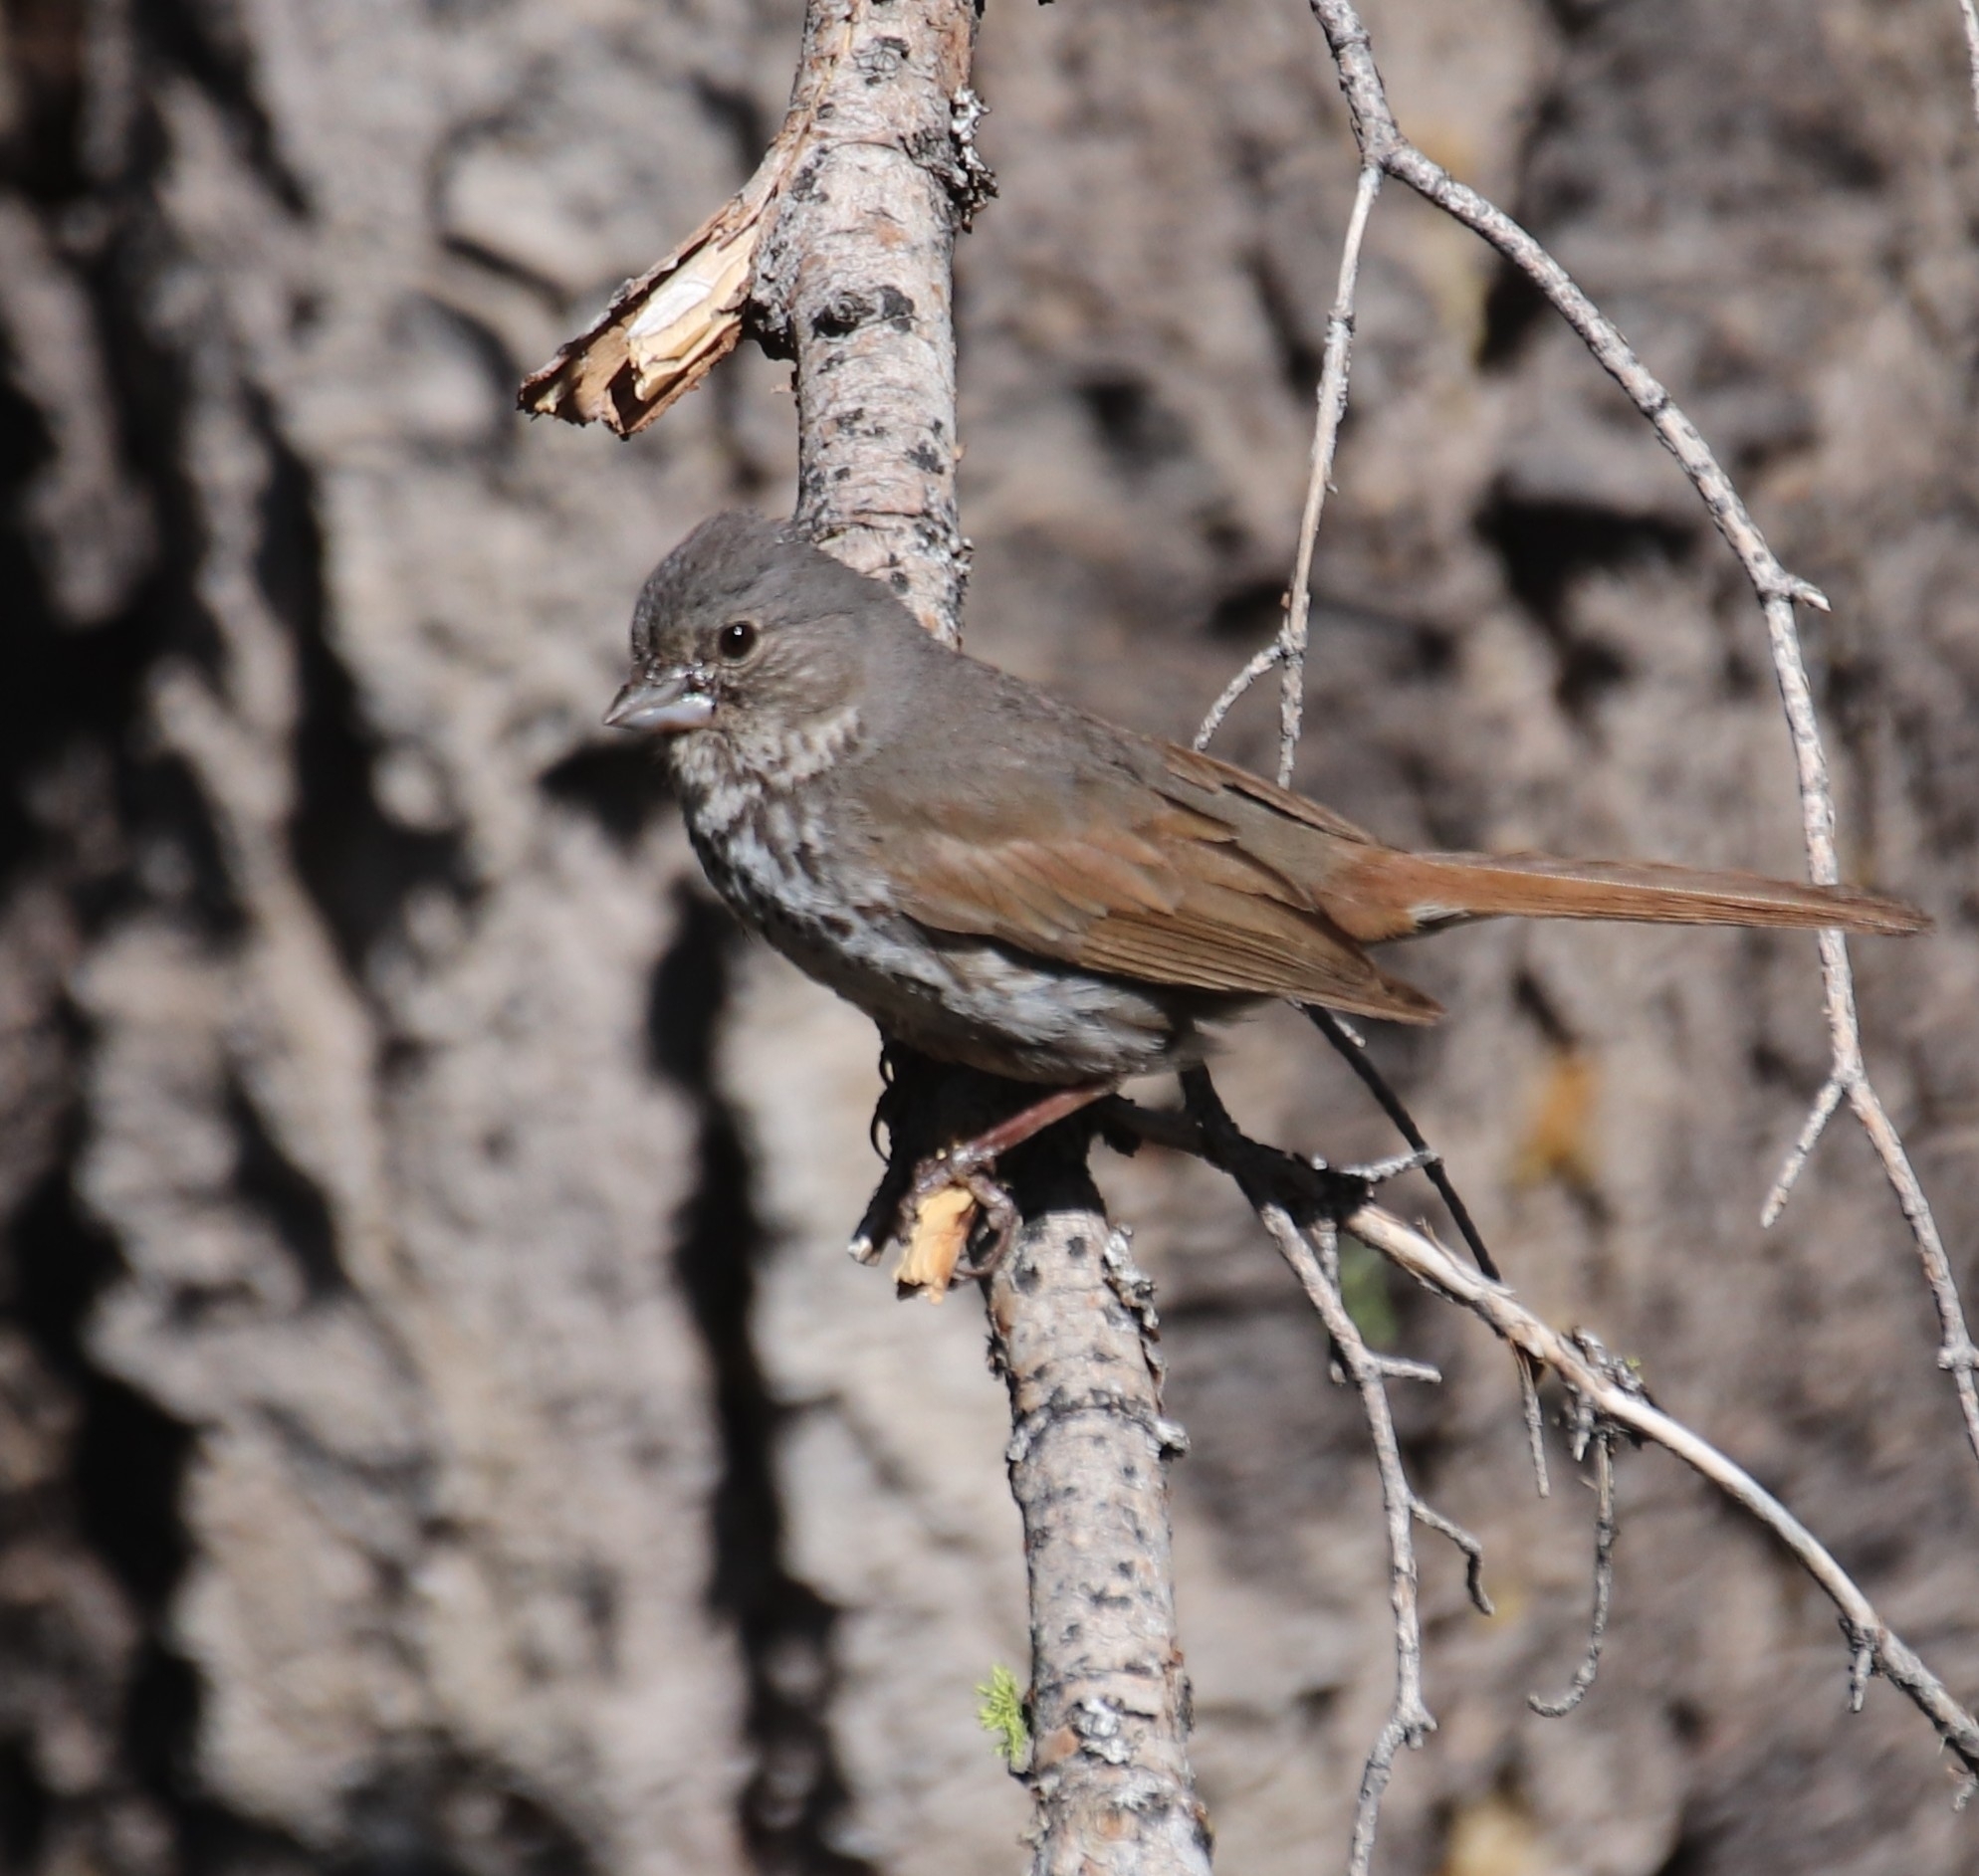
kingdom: Animalia
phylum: Chordata
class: Aves
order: Passeriformes
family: Passerellidae
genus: Passerella
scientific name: Passerella iliaca
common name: Fox sparrow
